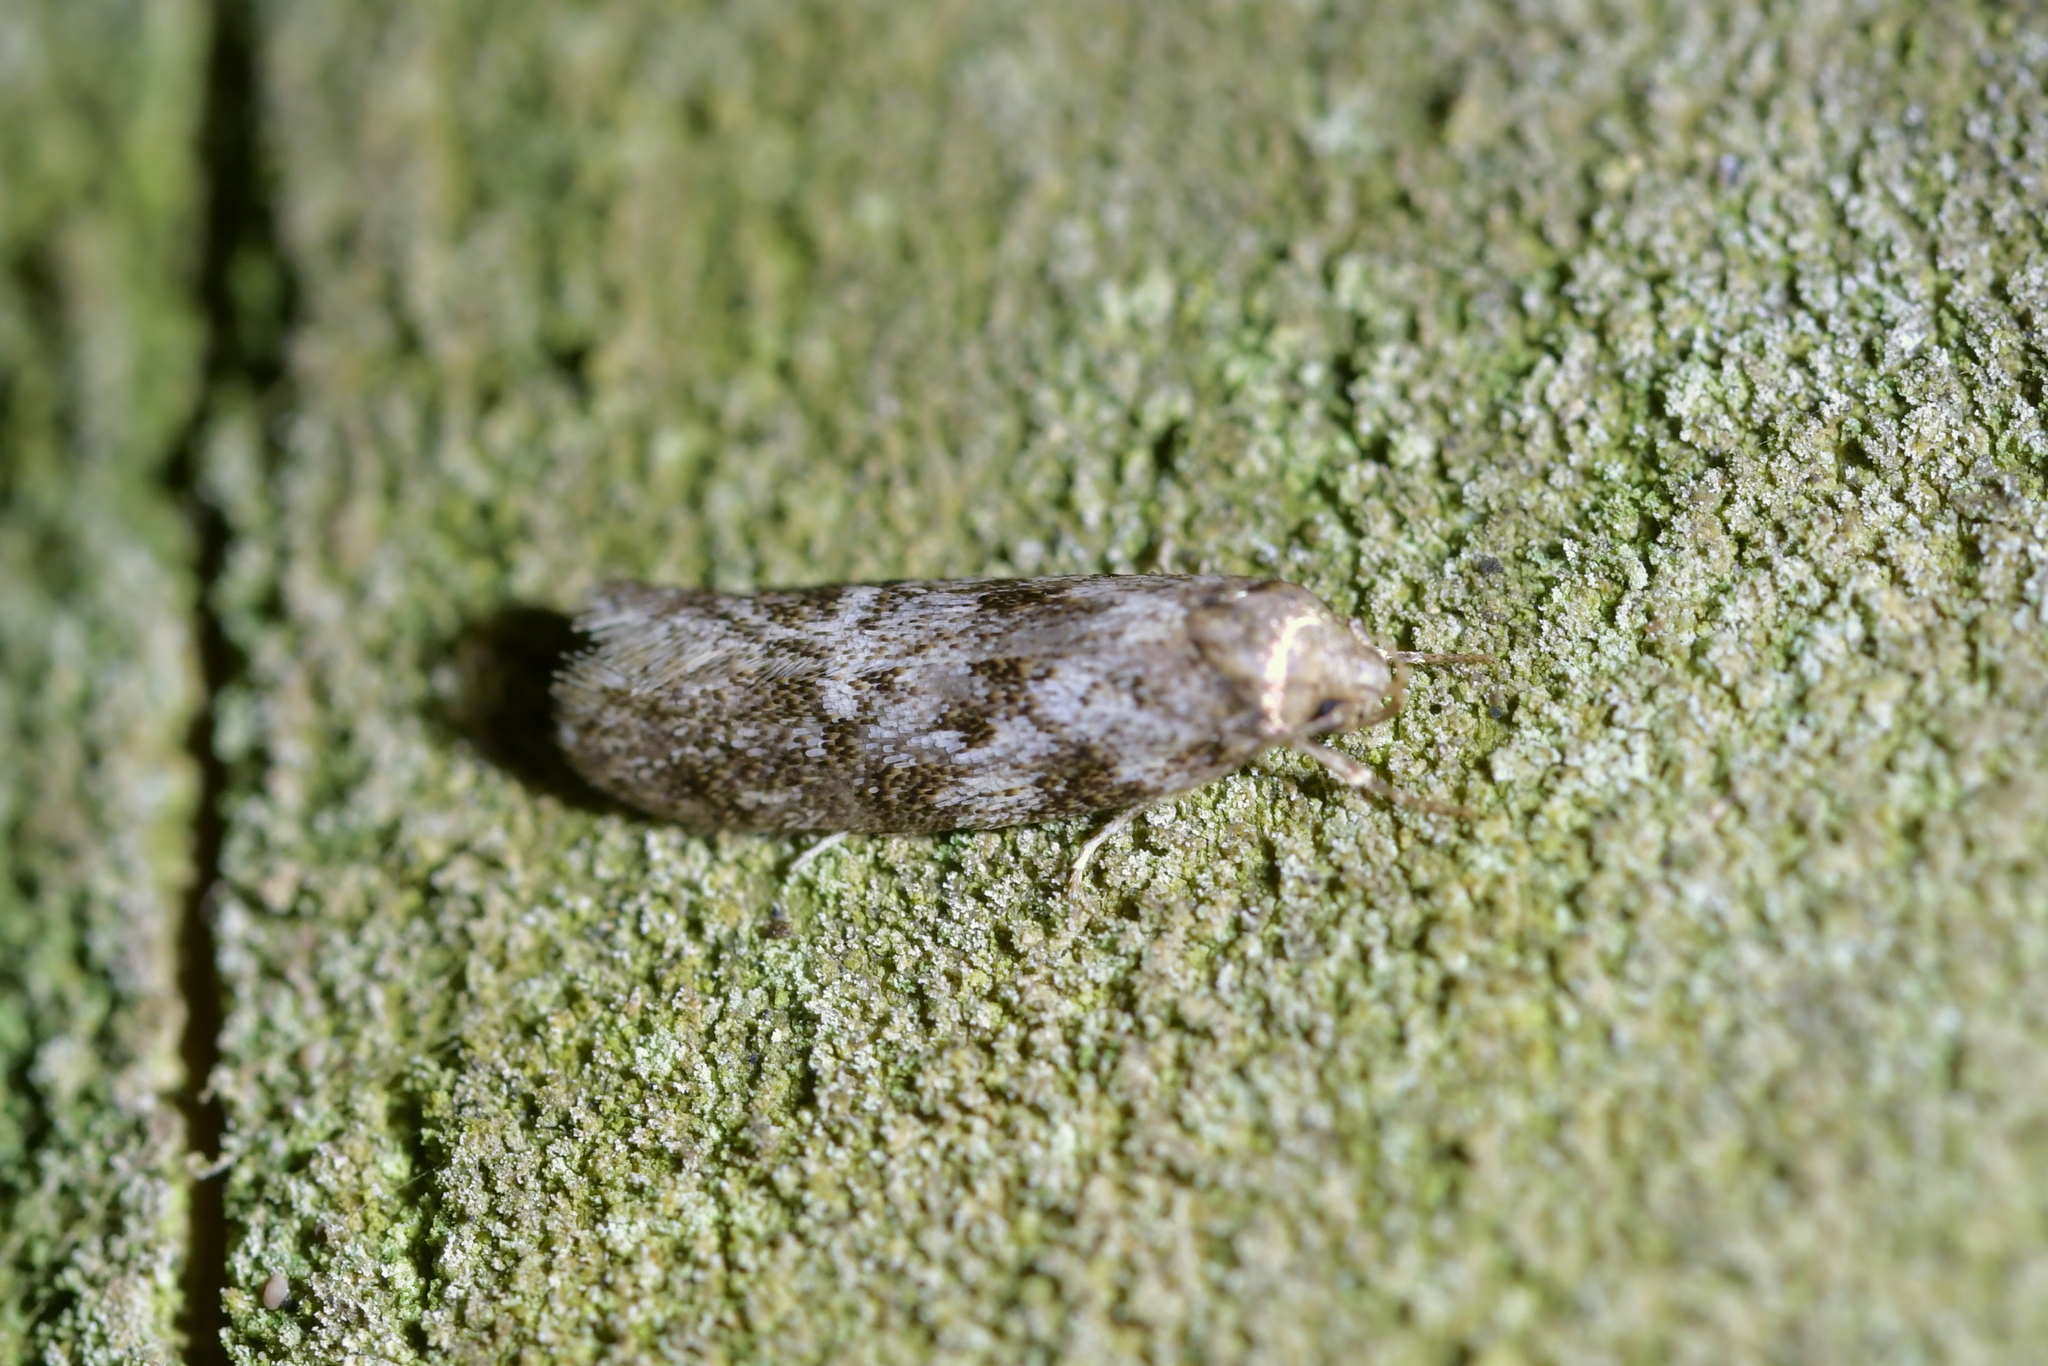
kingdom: Animalia
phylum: Arthropoda
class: Insecta
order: Lepidoptera
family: Oecophoridae
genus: Trachypepla
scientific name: Trachypepla photinella
